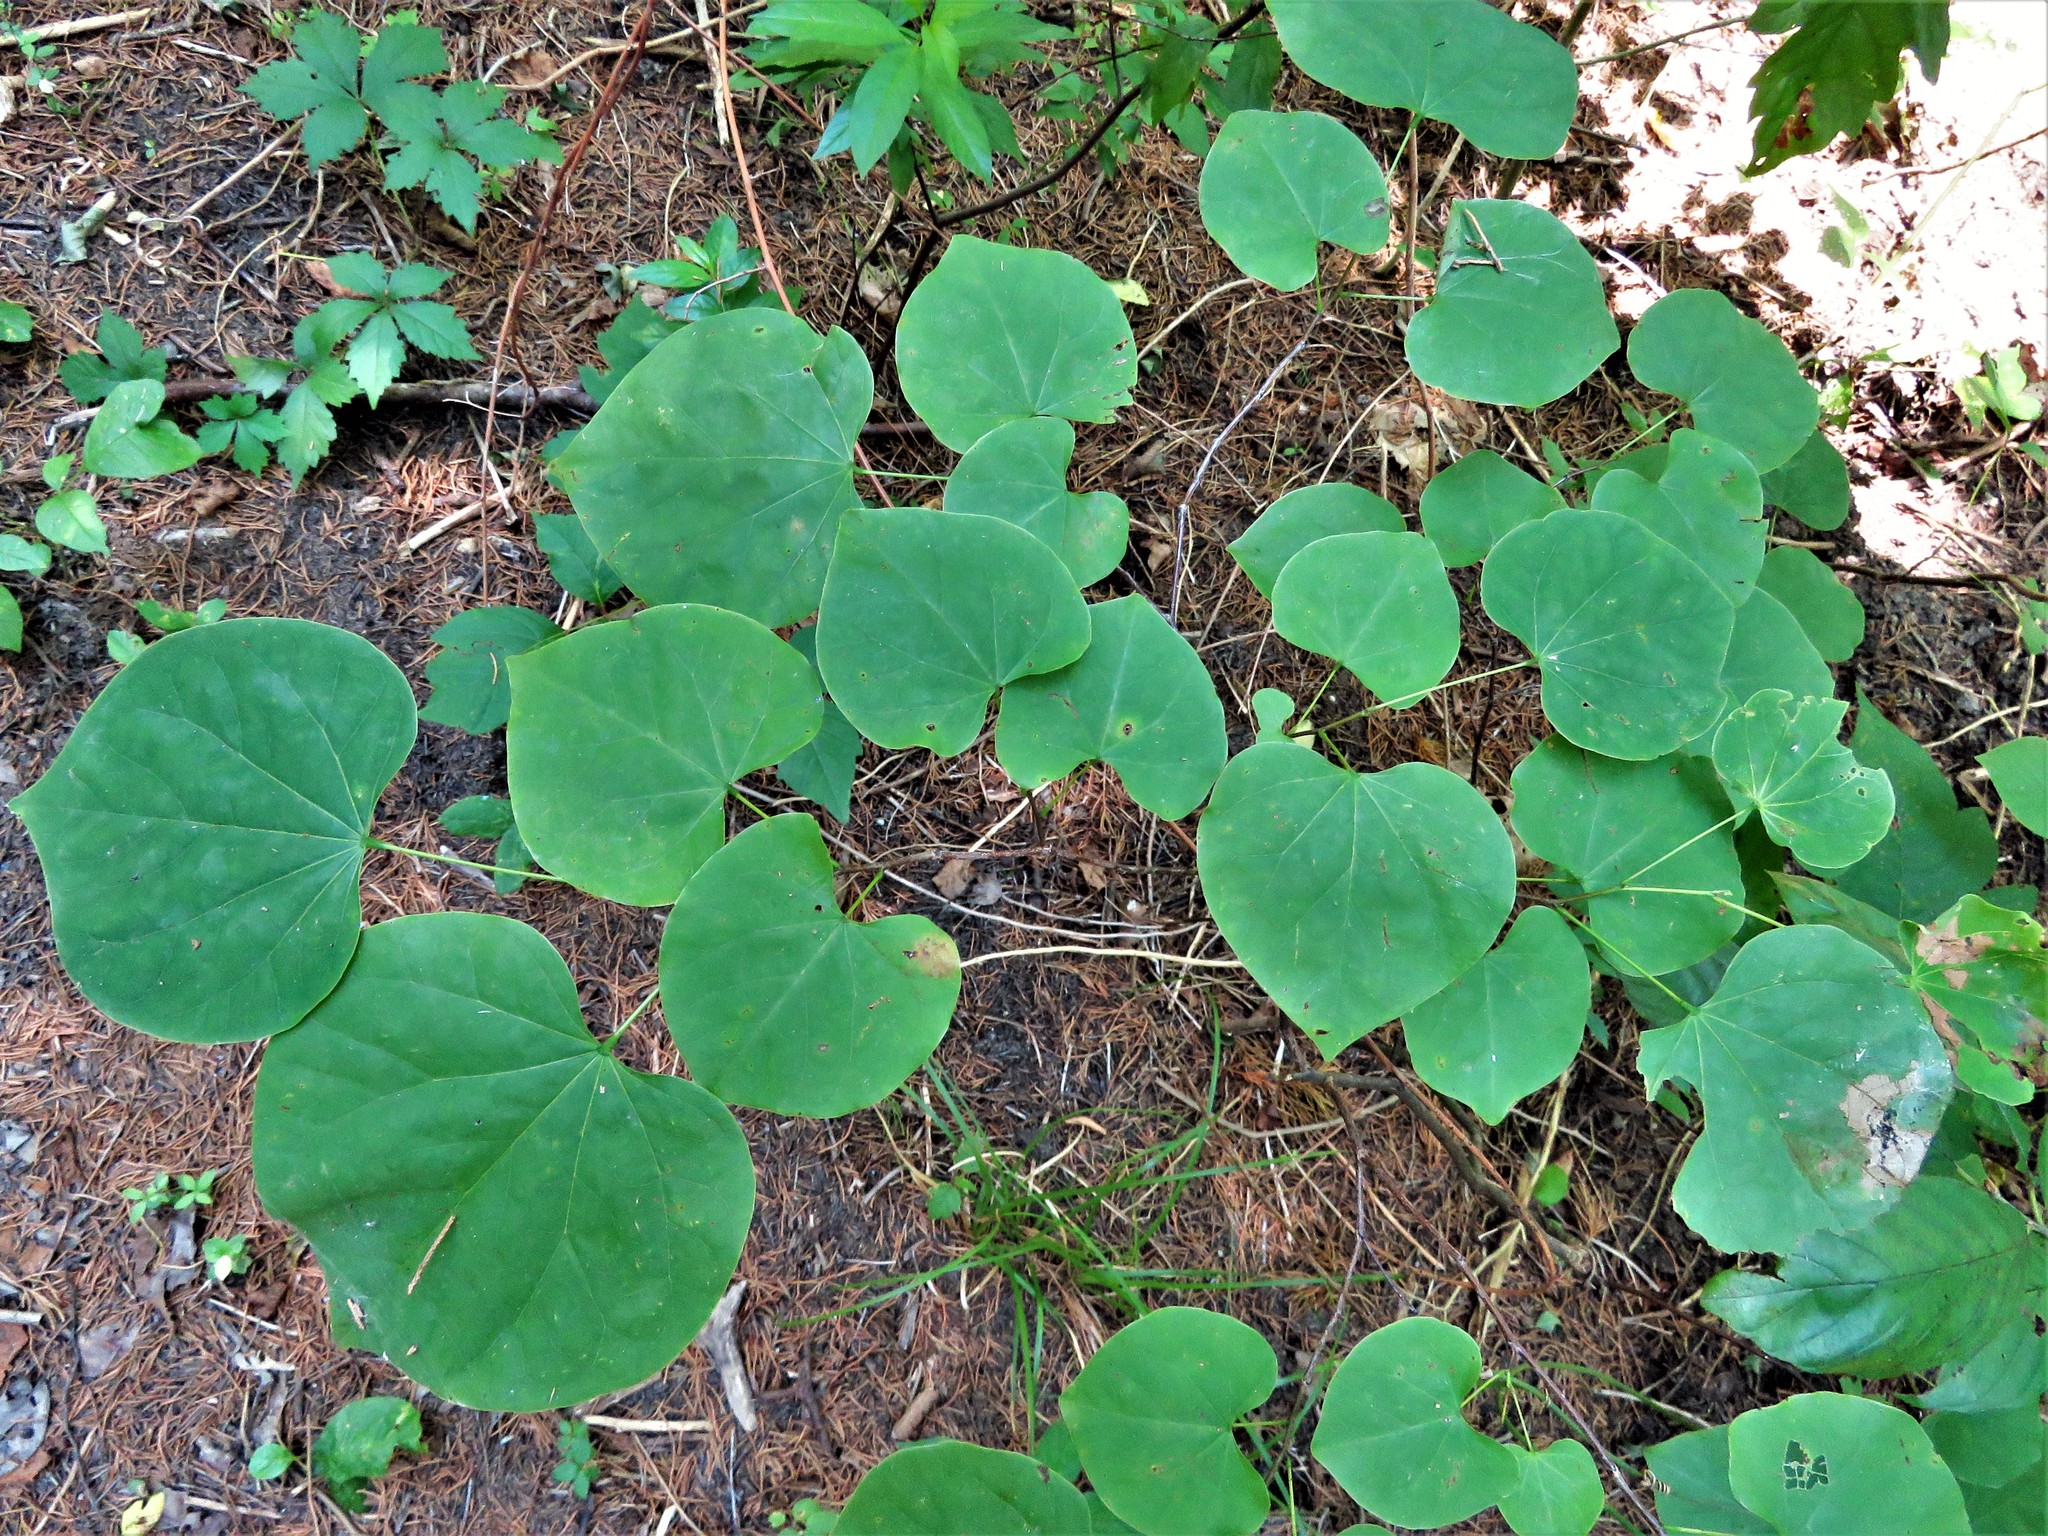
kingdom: Plantae
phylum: Tracheophyta
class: Magnoliopsida
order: Fabales
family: Fabaceae
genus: Cercis
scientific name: Cercis canadensis
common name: Eastern redbud
